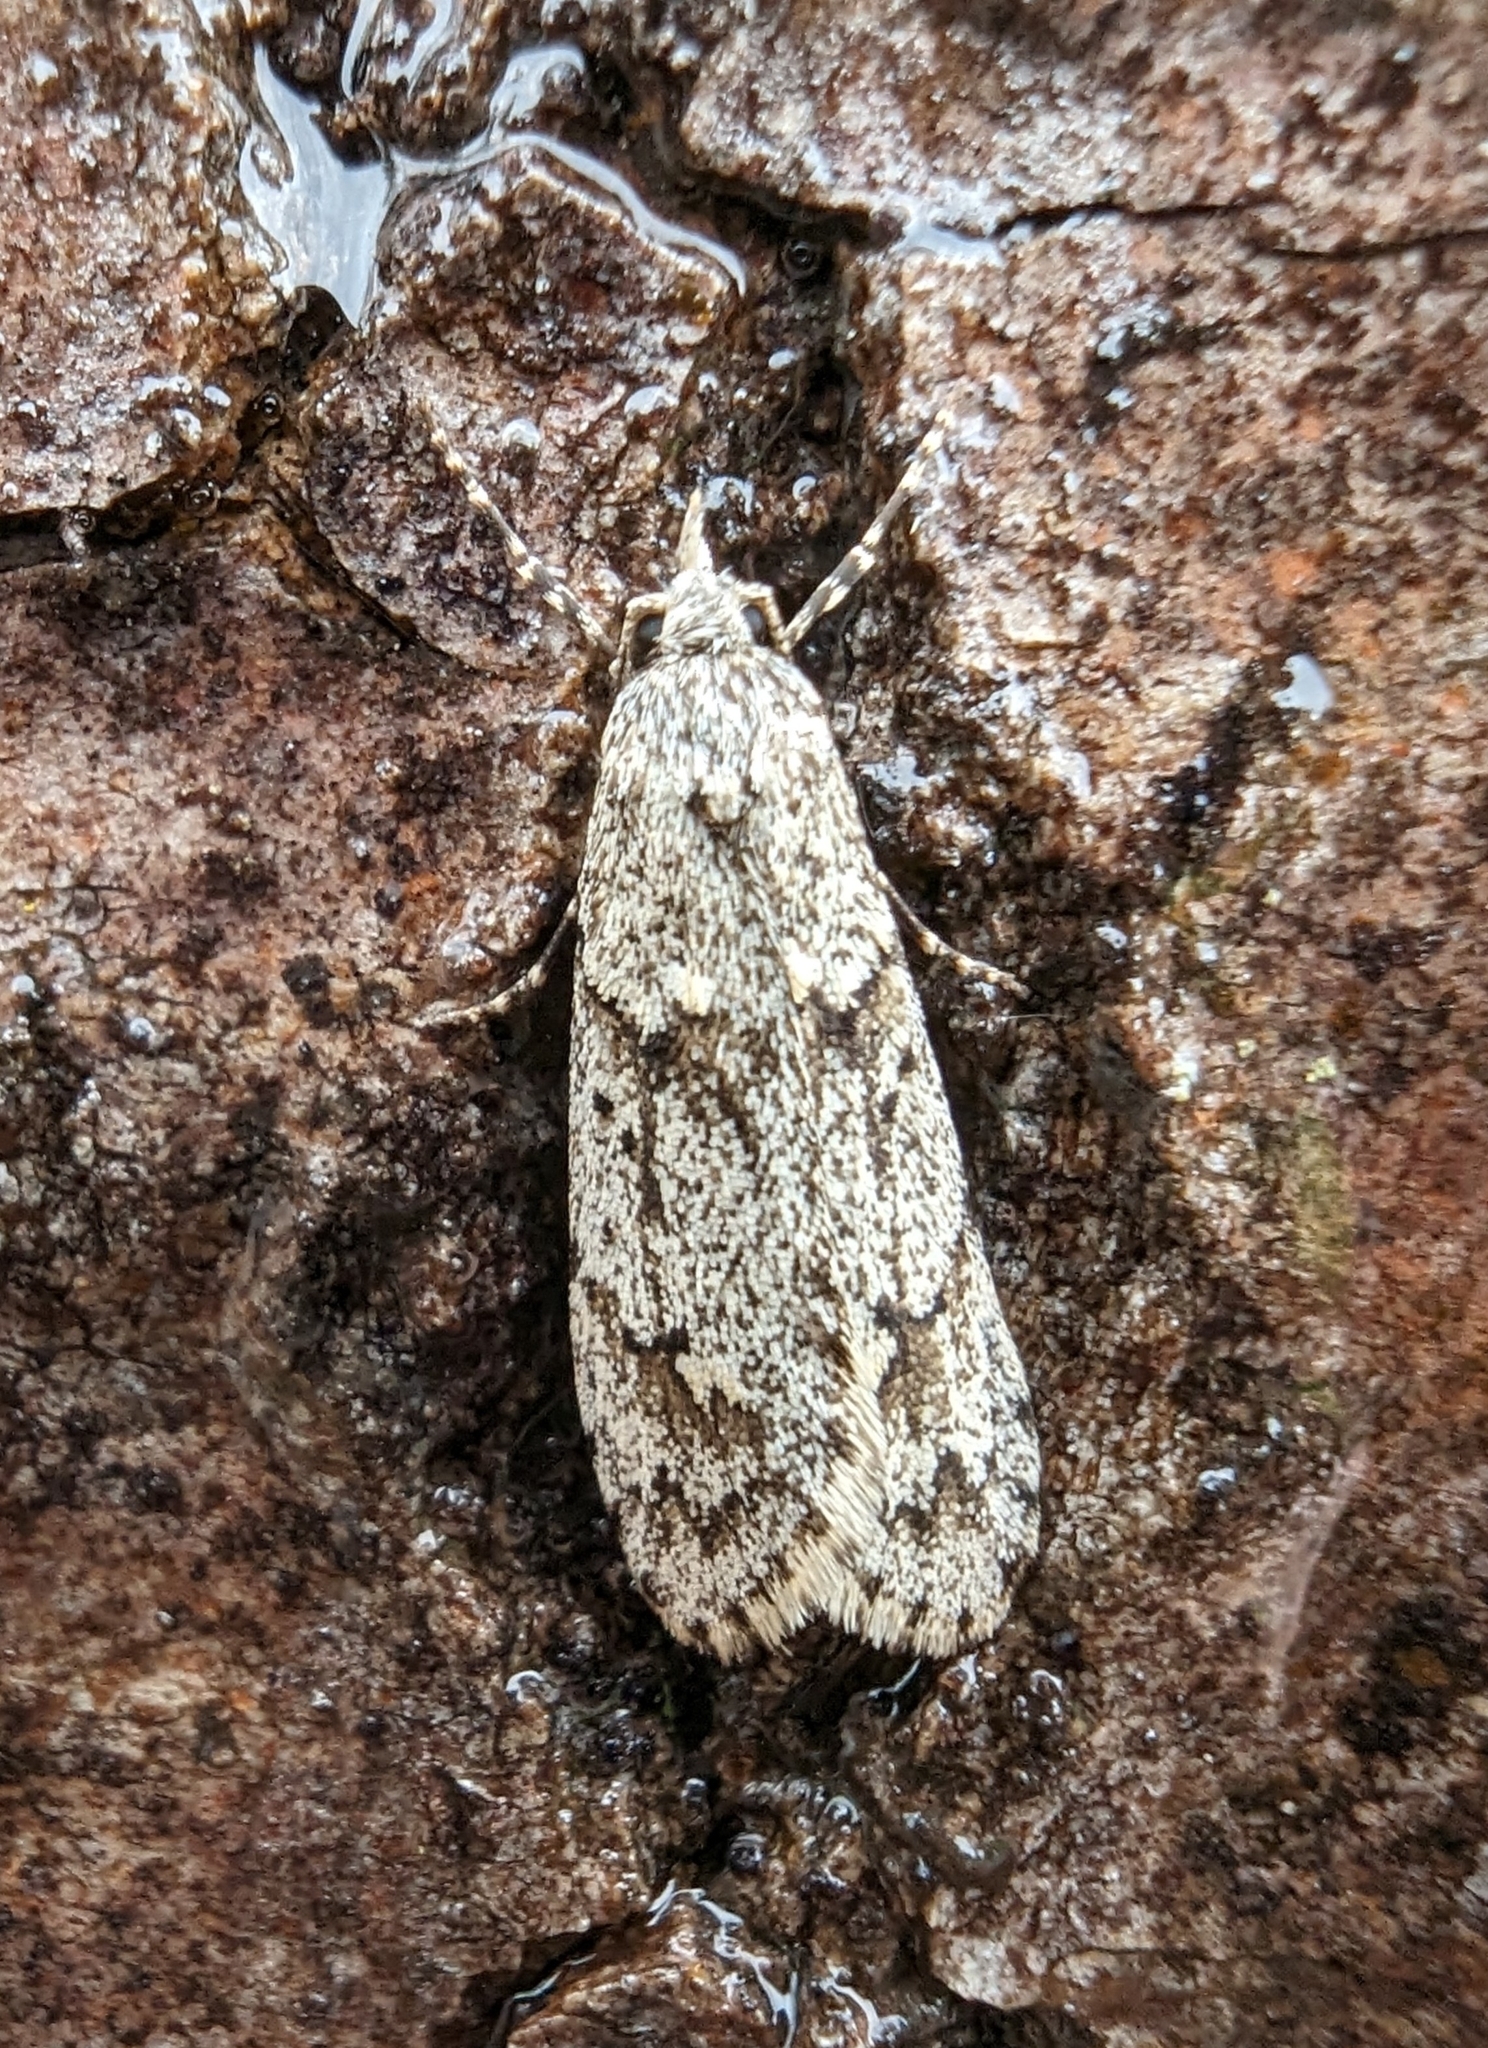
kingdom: Animalia
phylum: Arthropoda
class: Insecta
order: Lepidoptera
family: Lypusidae
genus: Diurnea
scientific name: Diurnea fagella
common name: March tubic
